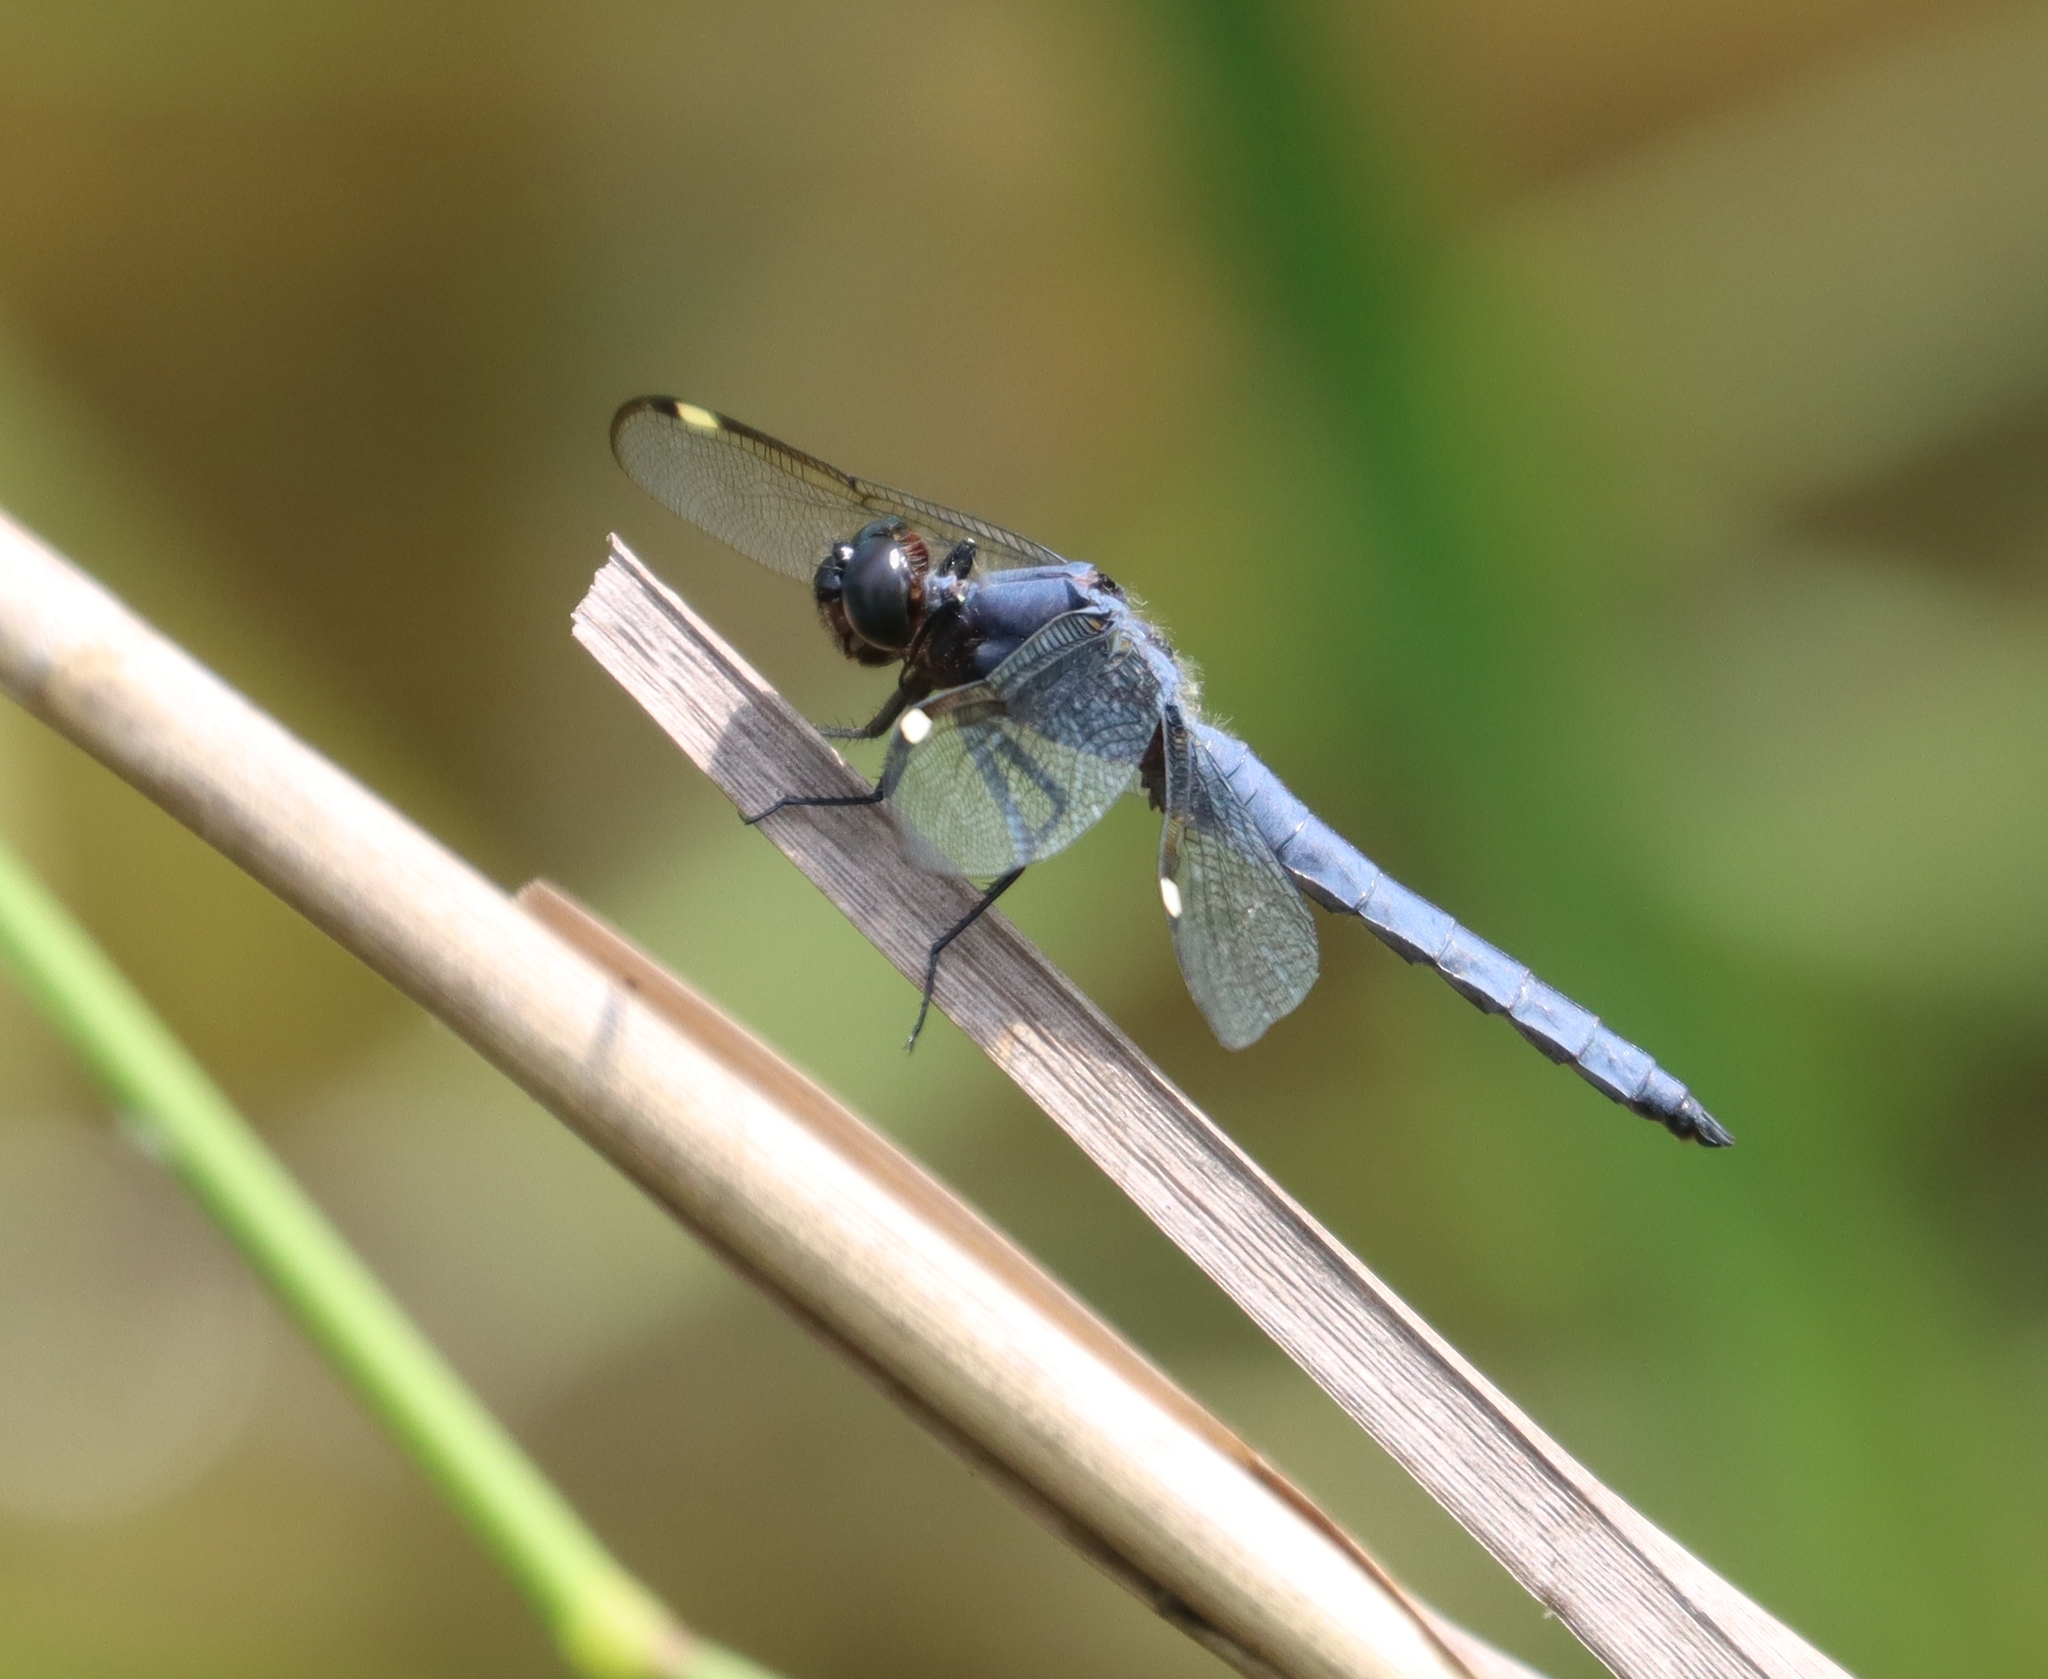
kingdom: Animalia
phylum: Arthropoda
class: Insecta
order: Odonata
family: Libellulidae
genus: Libellula
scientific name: Libellula cyanea
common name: Spangled skimmer
